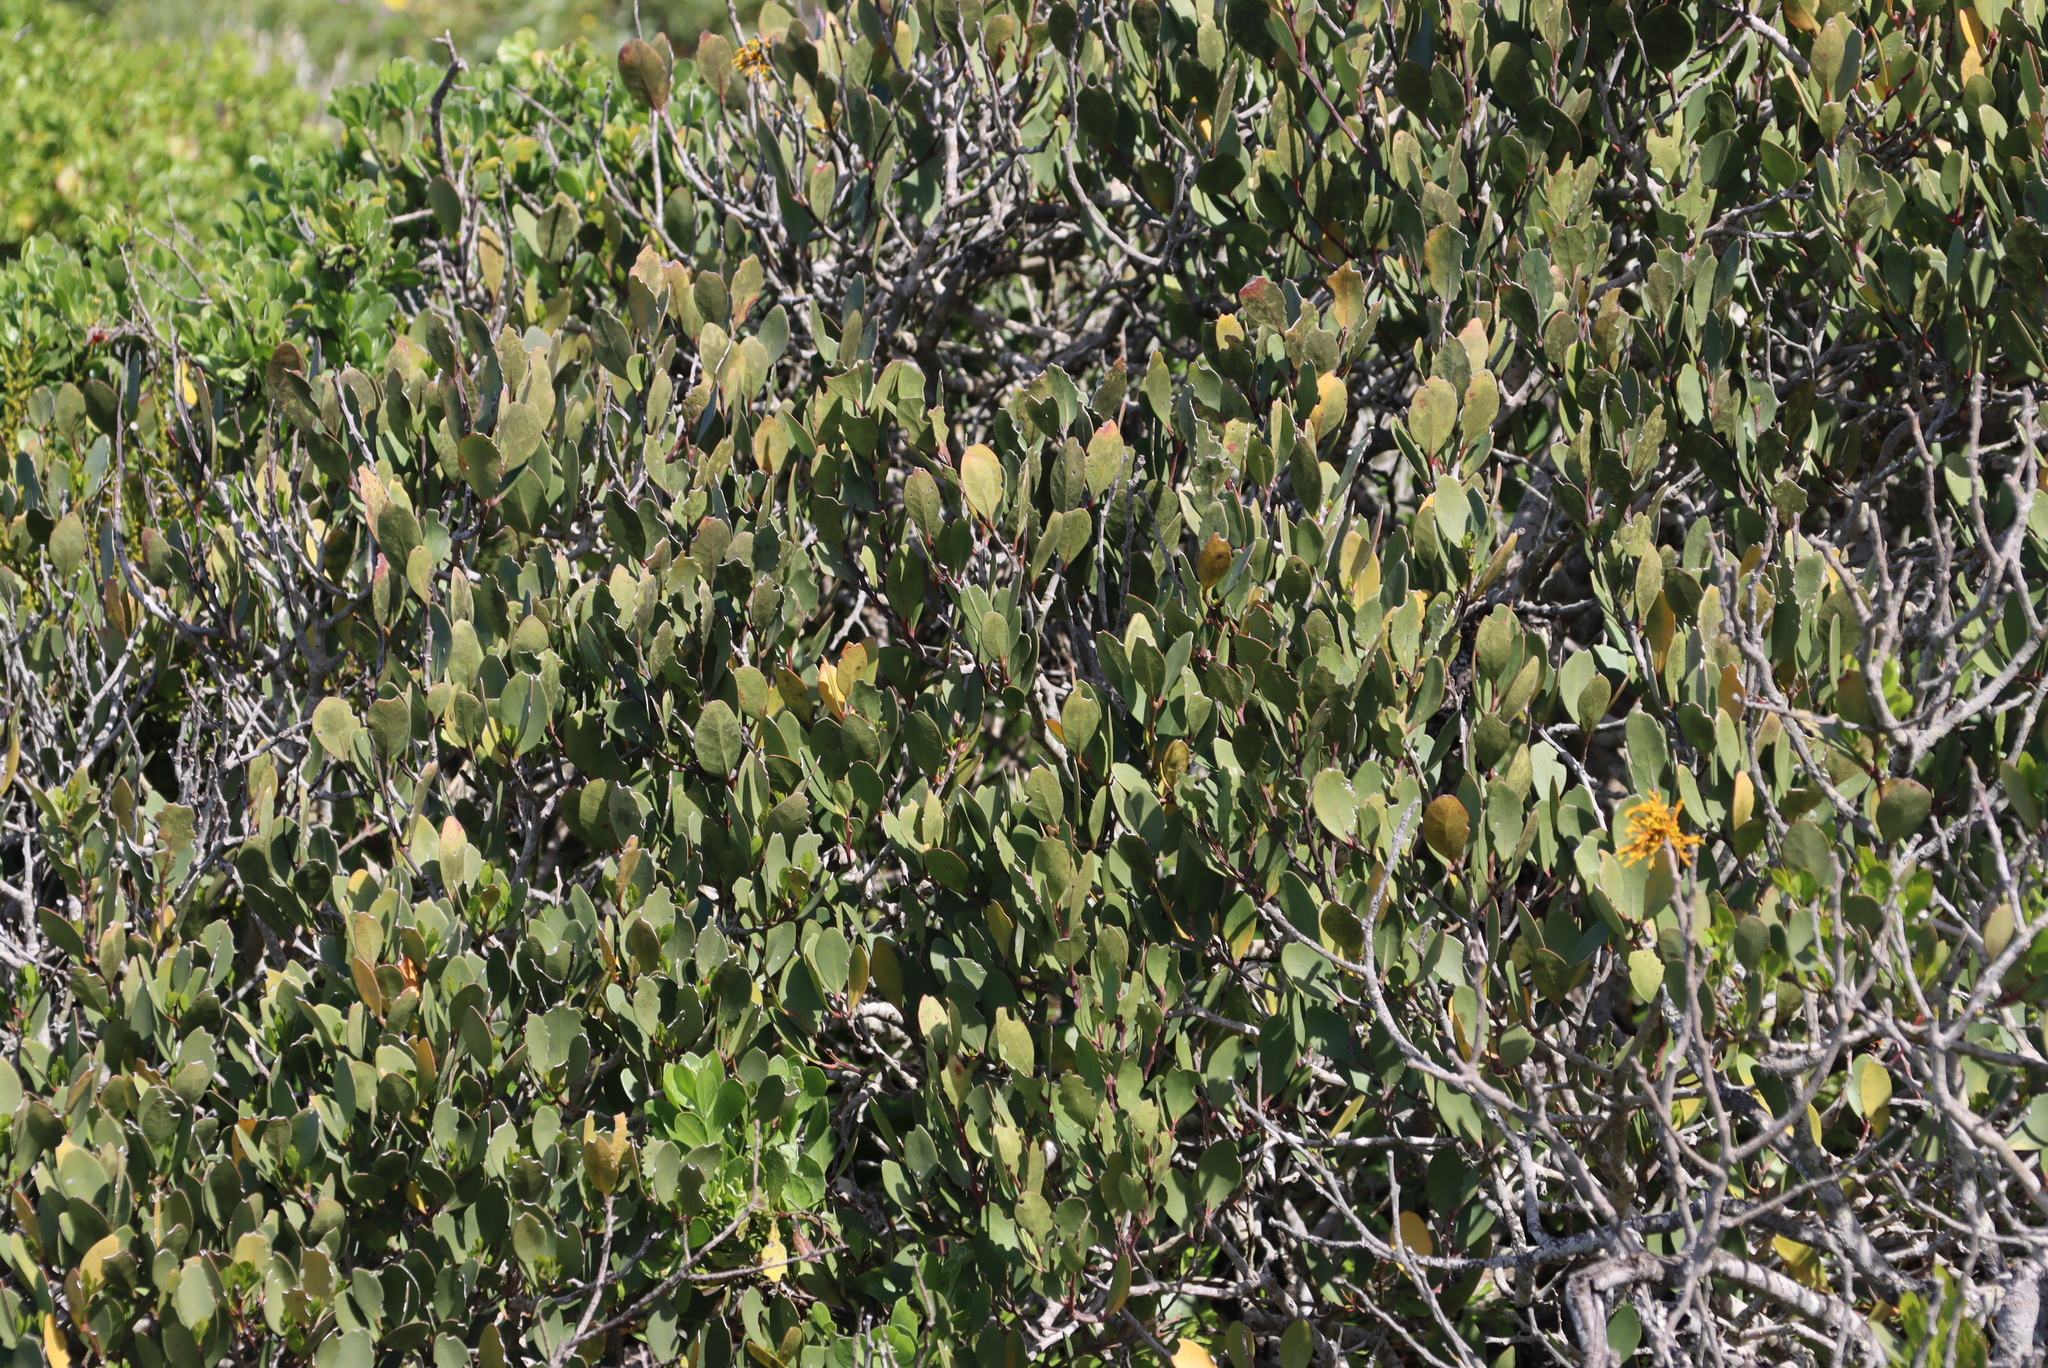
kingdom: Plantae
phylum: Tracheophyta
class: Magnoliopsida
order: Celastrales
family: Celastraceae
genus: Pterocelastrus
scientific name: Pterocelastrus tricuspidatus
